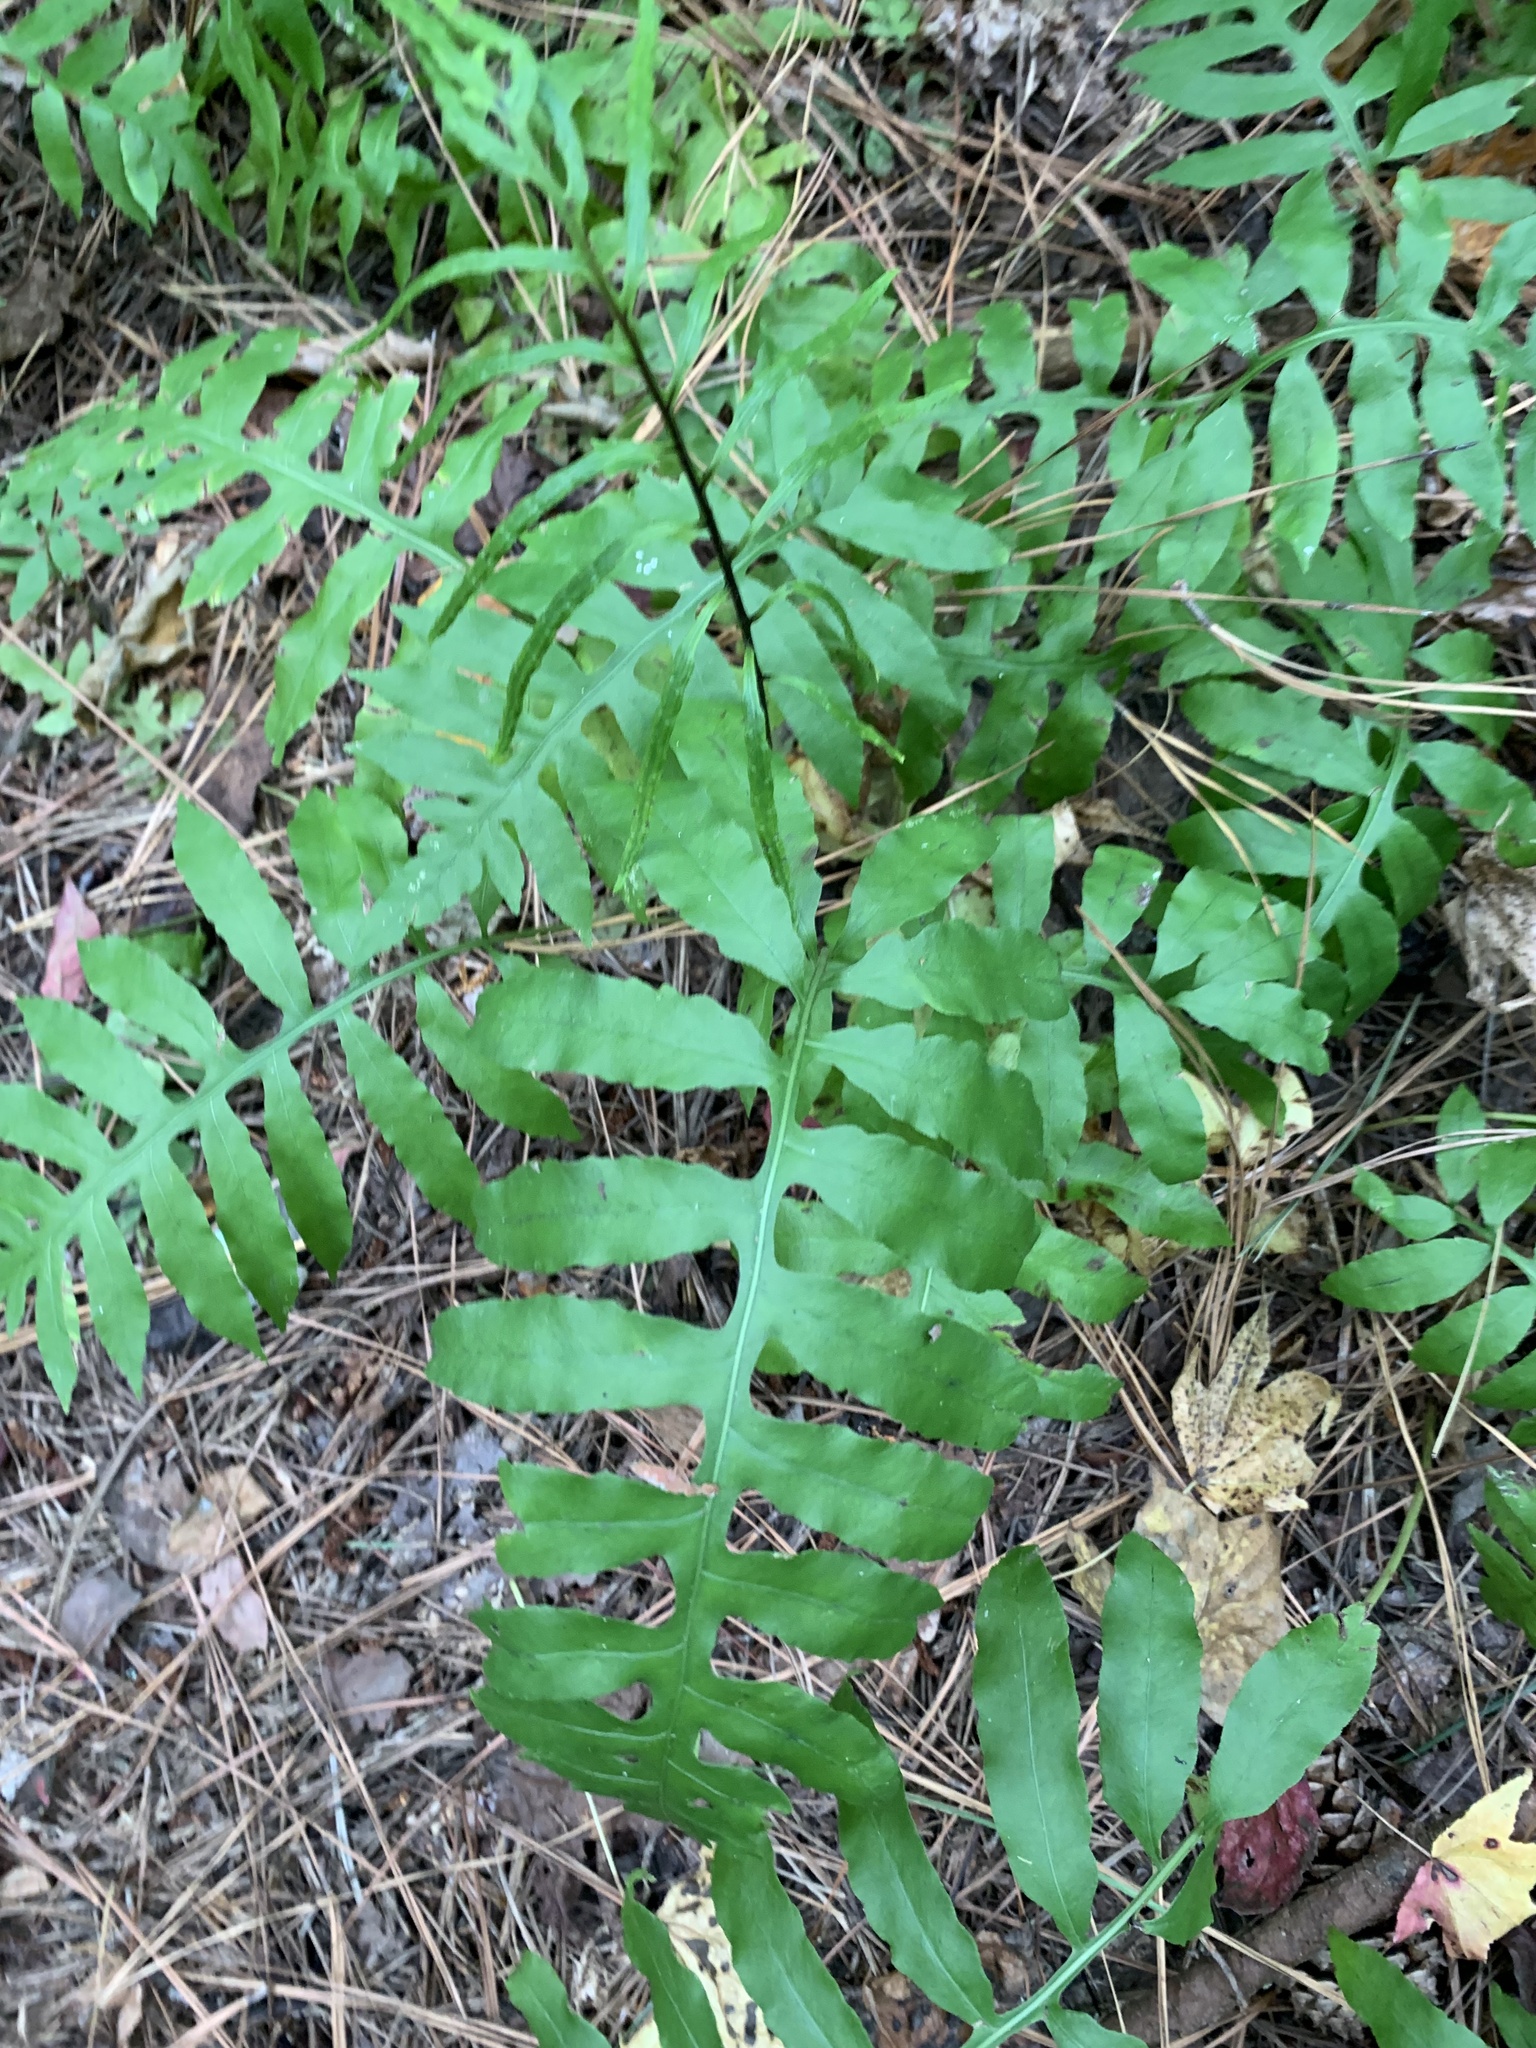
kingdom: Plantae
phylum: Tracheophyta
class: Polypodiopsida
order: Polypodiales
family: Blechnaceae
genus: Lorinseria
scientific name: Lorinseria areolata
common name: Dwarf chain fern
